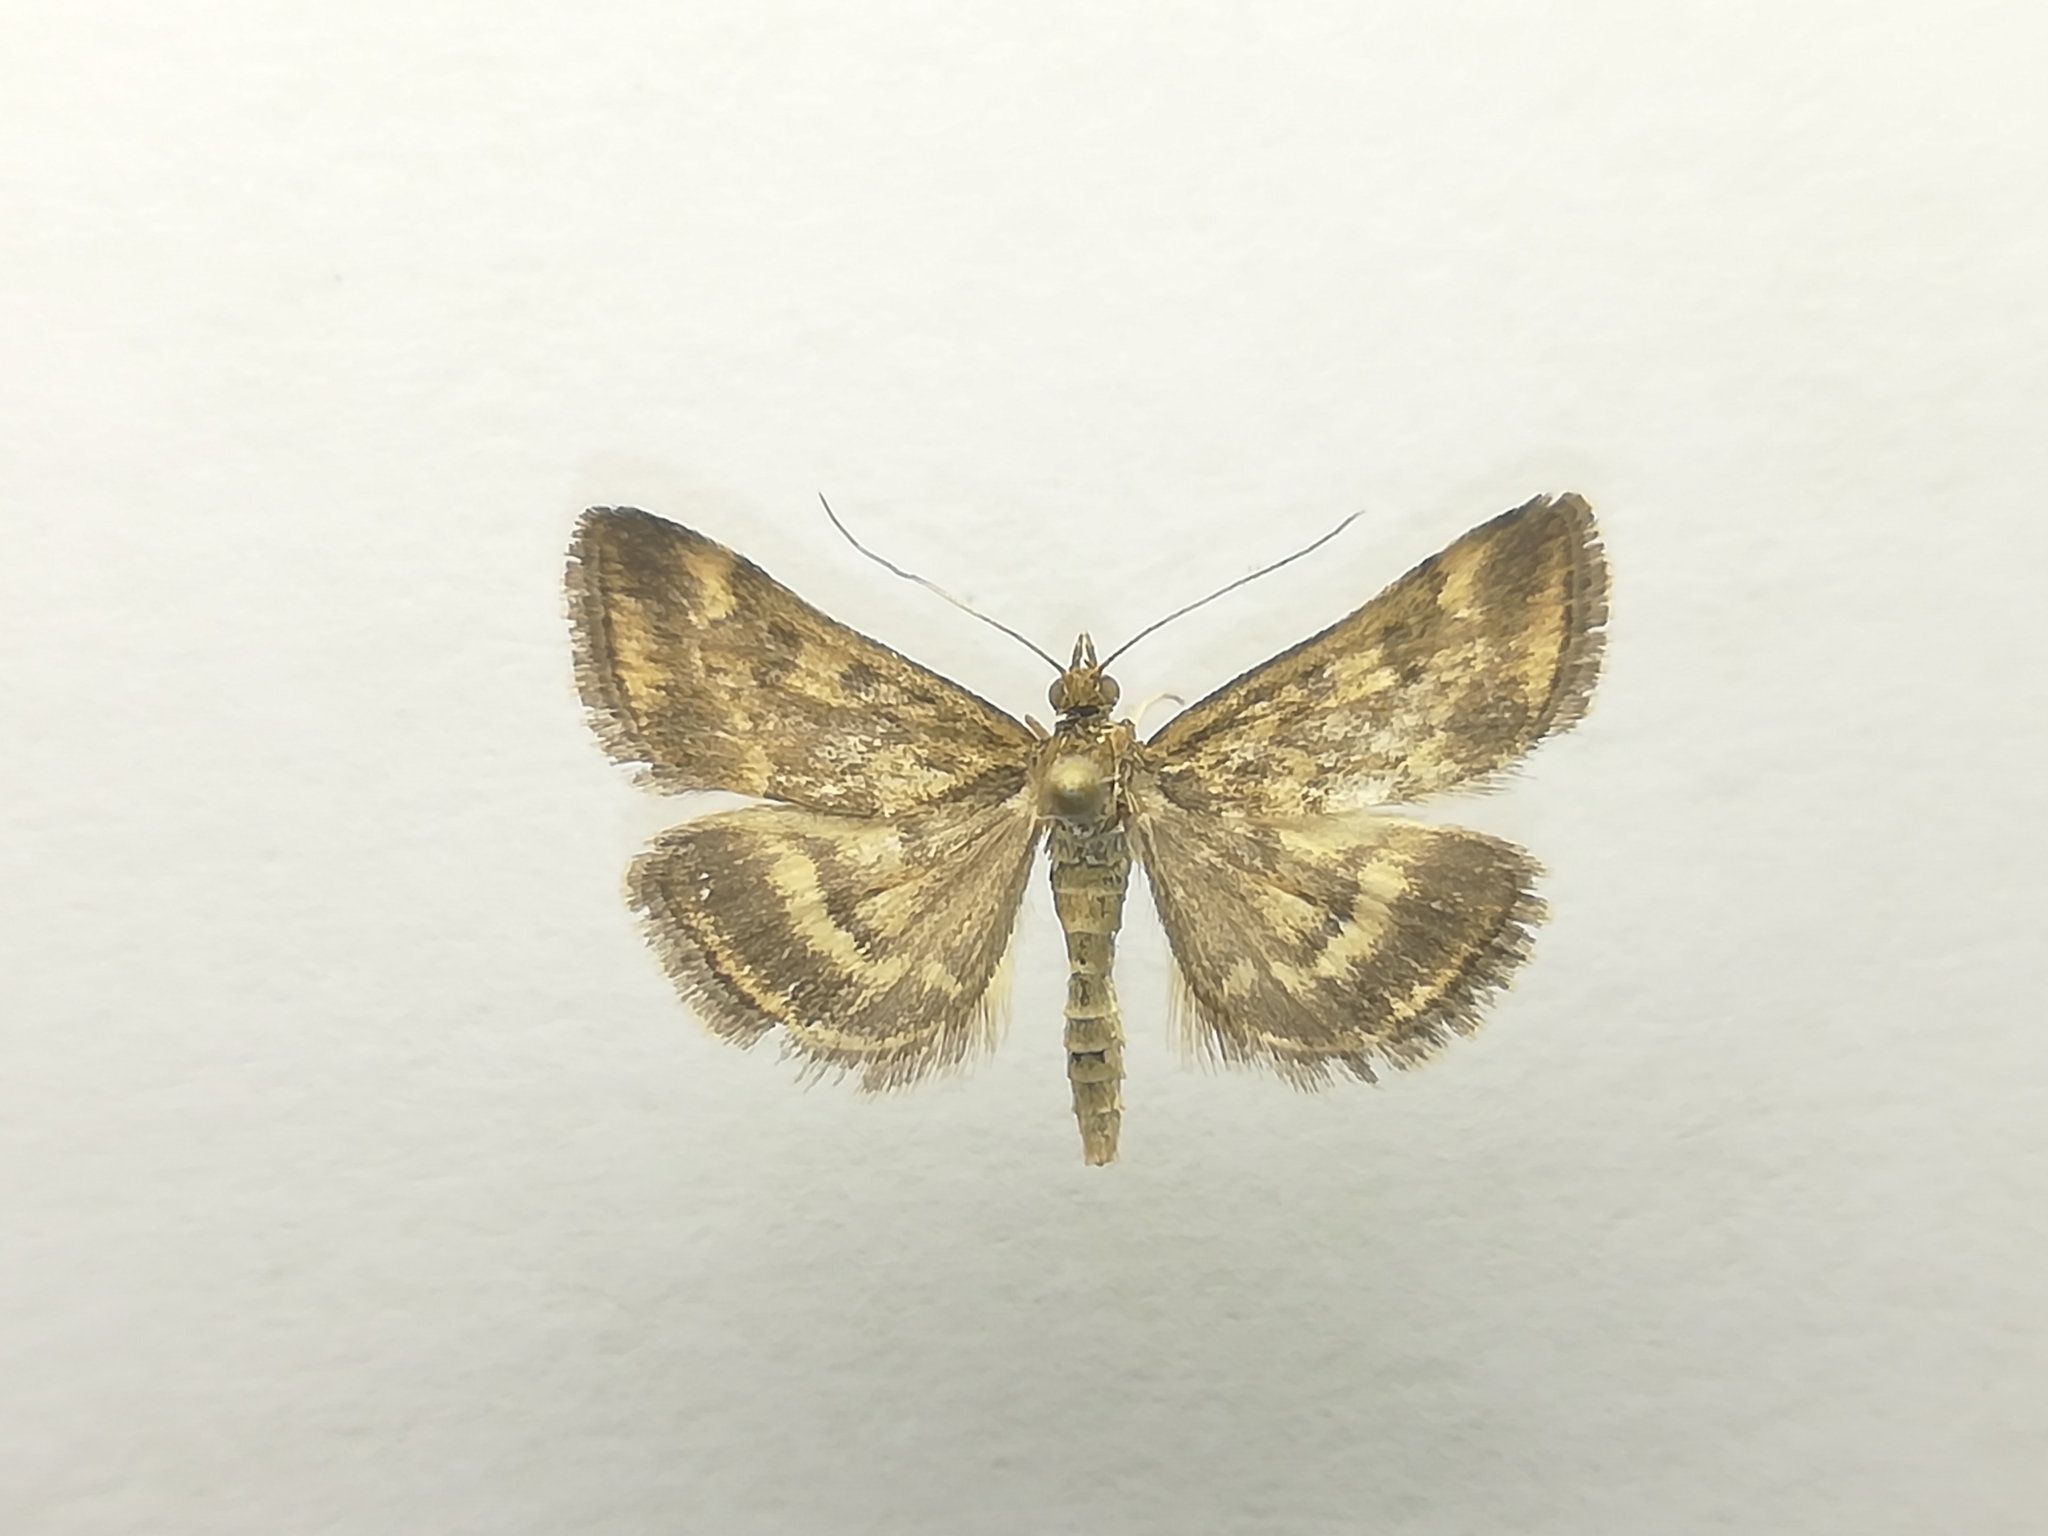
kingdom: Animalia
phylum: Arthropoda
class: Insecta
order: Lepidoptera
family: Crambidae
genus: Pyrausta
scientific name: Pyrausta despicata
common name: Straw-barred pearl
